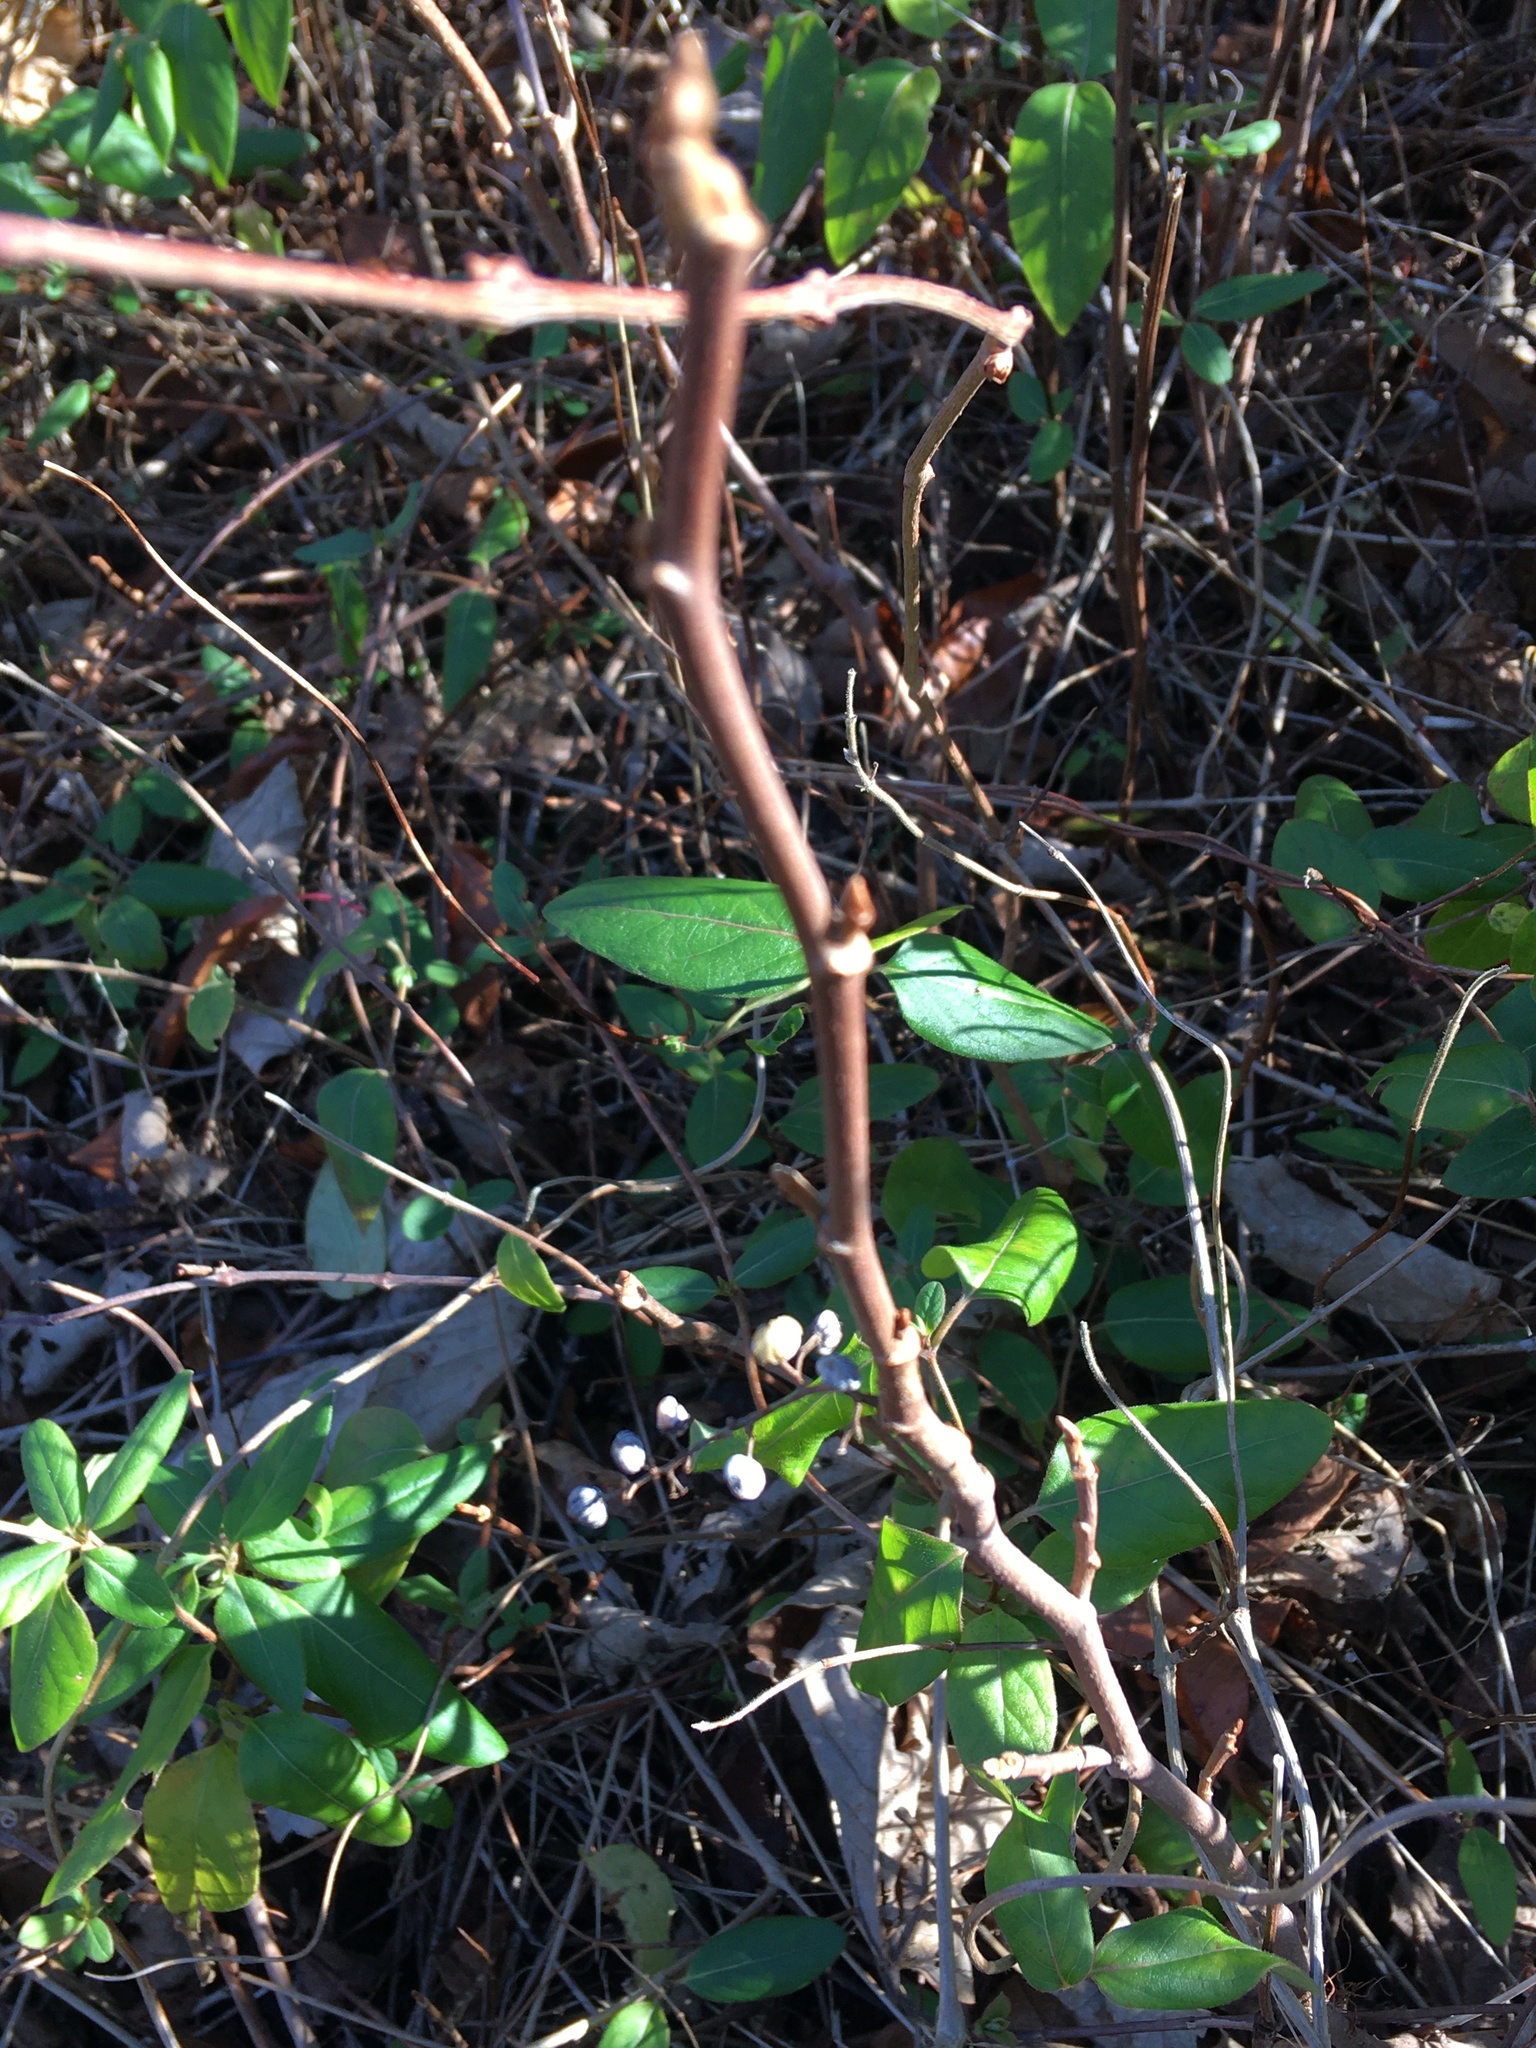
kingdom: Plantae
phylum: Tracheophyta
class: Magnoliopsida
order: Dipsacales
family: Caprifoliaceae
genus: Lonicera
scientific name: Lonicera japonica
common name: Japanese honeysuckle
